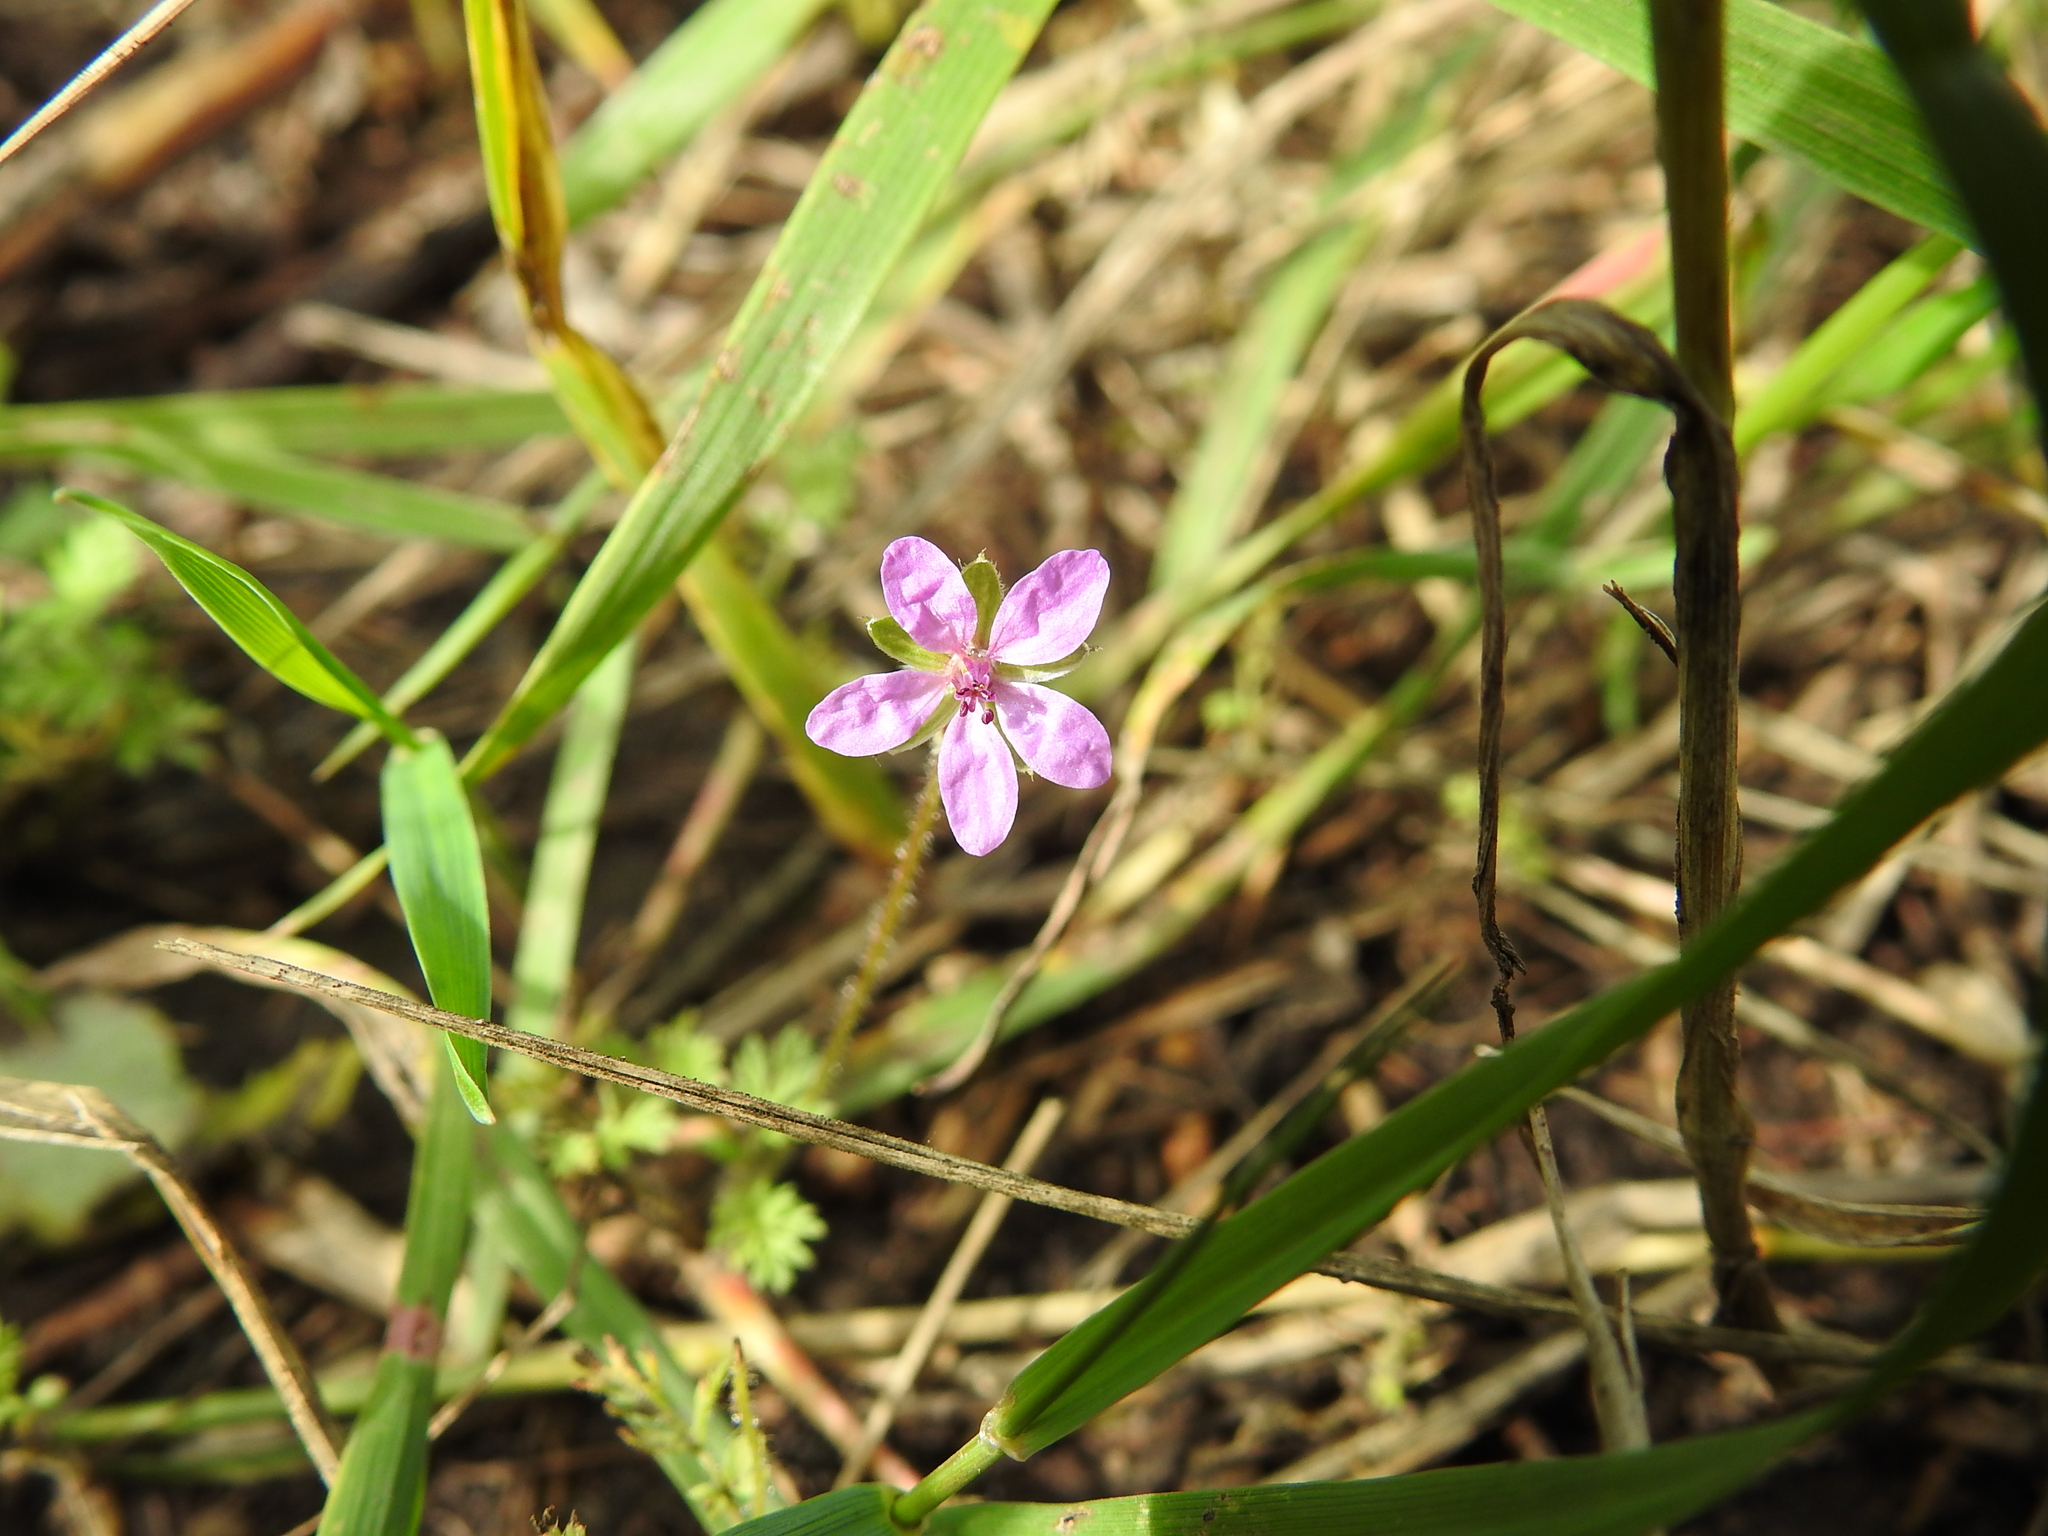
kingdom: Plantae
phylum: Tracheophyta
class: Magnoliopsida
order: Geraniales
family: Geraniaceae
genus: Erodium
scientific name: Erodium cicutarium
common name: Common stork's-bill
